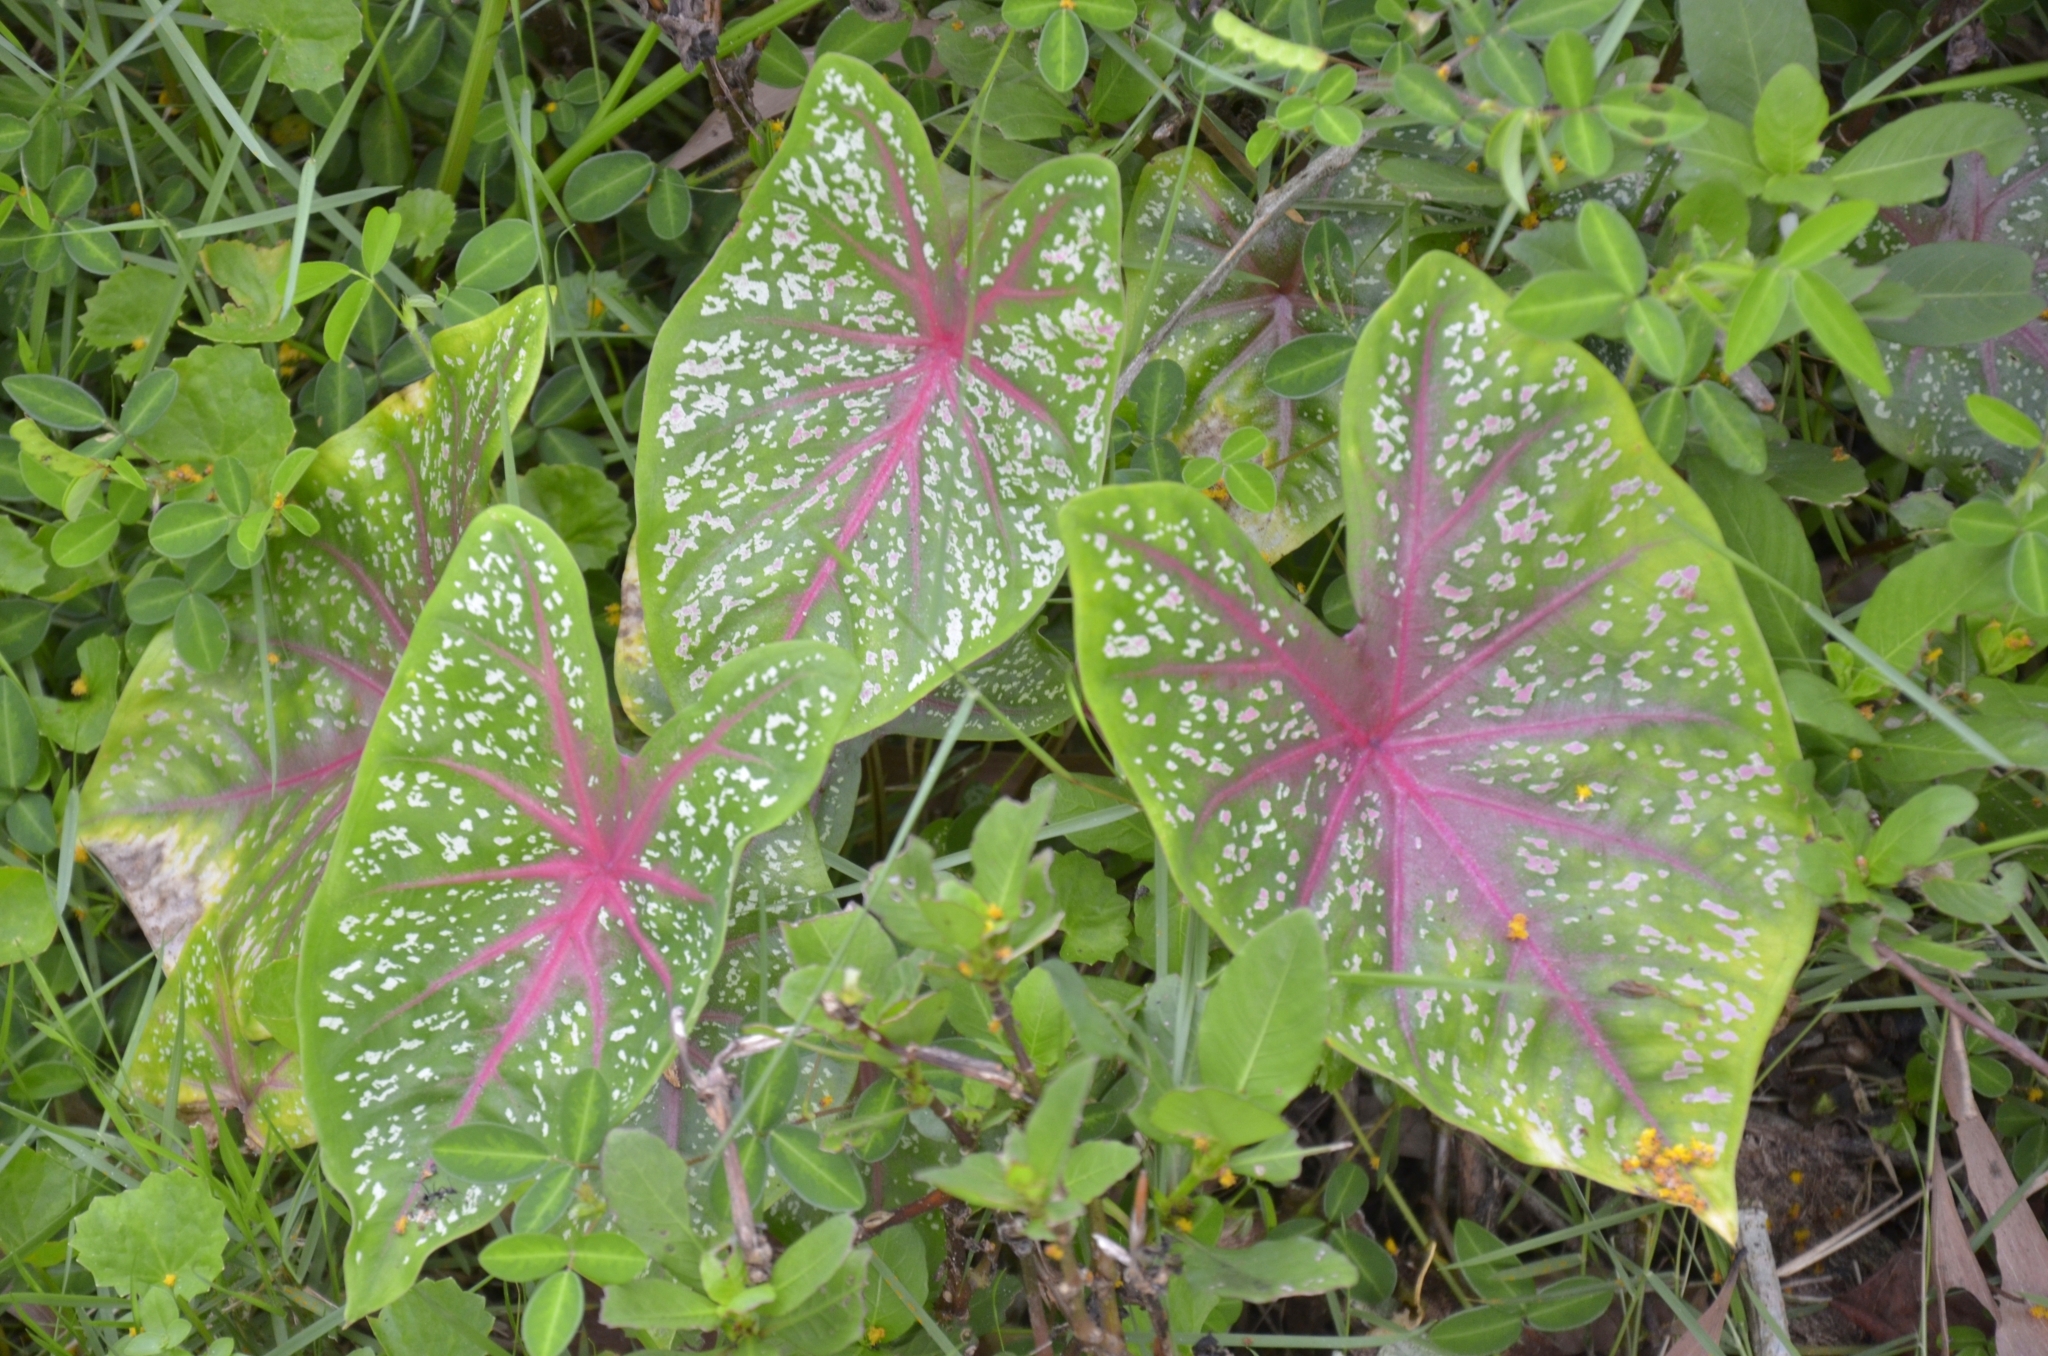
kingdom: Plantae
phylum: Tracheophyta
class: Liliopsida
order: Alismatales
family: Araceae
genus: Caladium
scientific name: Caladium bicolor
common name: Artist's pallet
